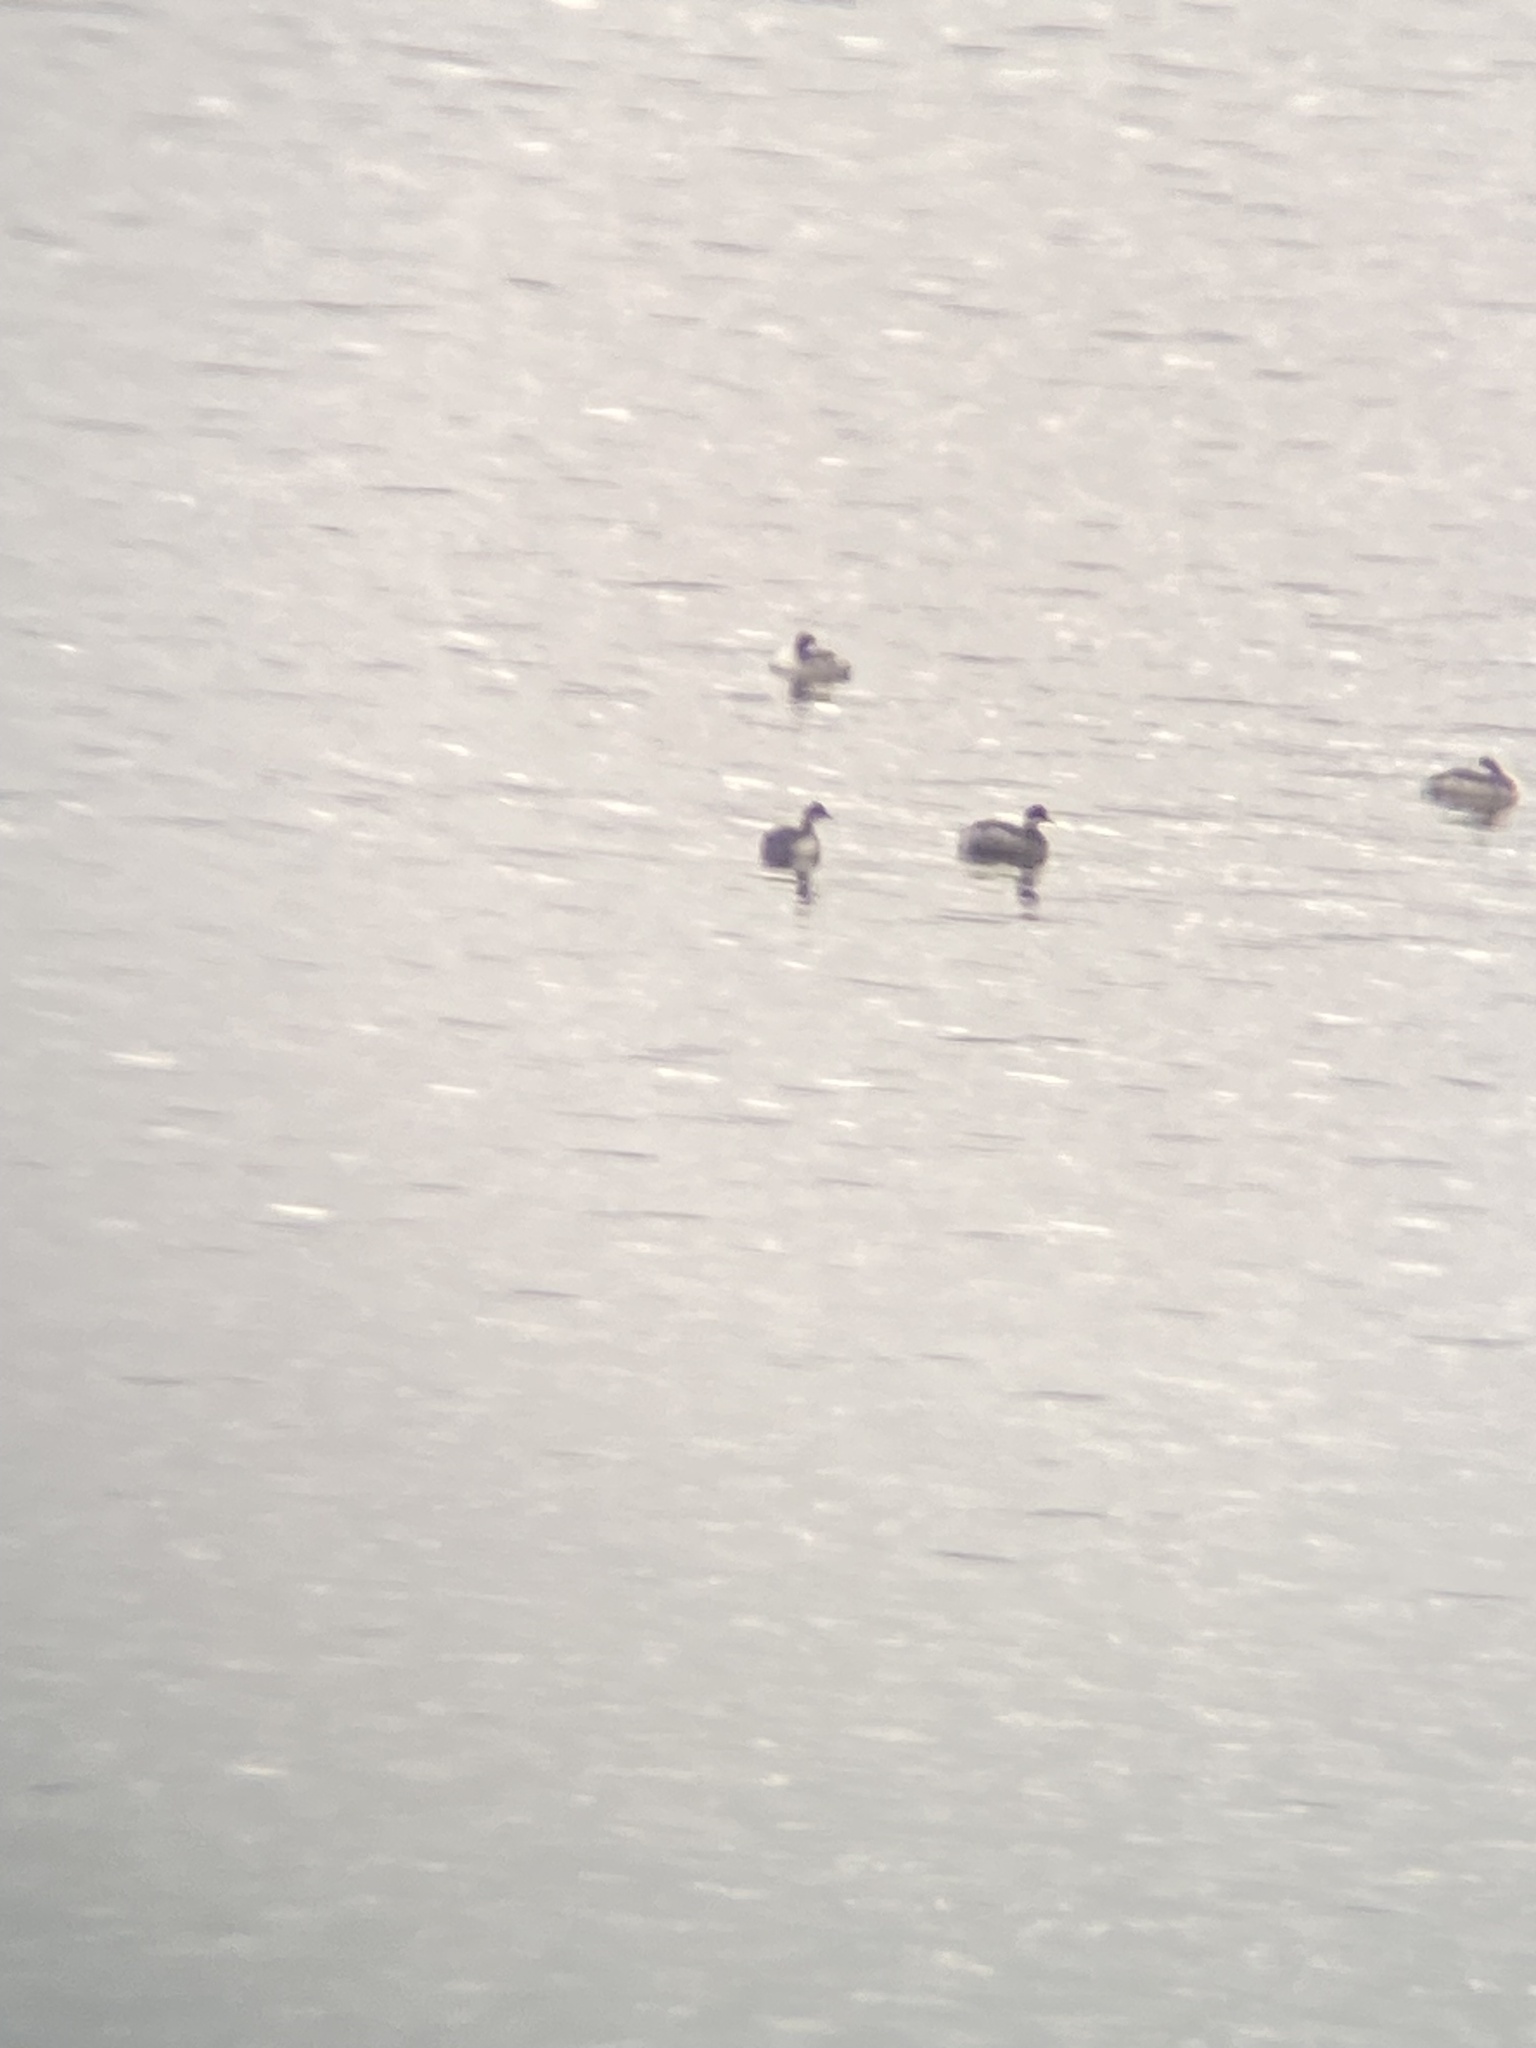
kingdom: Animalia
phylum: Chordata
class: Aves
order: Podicipediformes
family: Podicipedidae
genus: Podiceps
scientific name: Podiceps auritus
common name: Horned grebe
